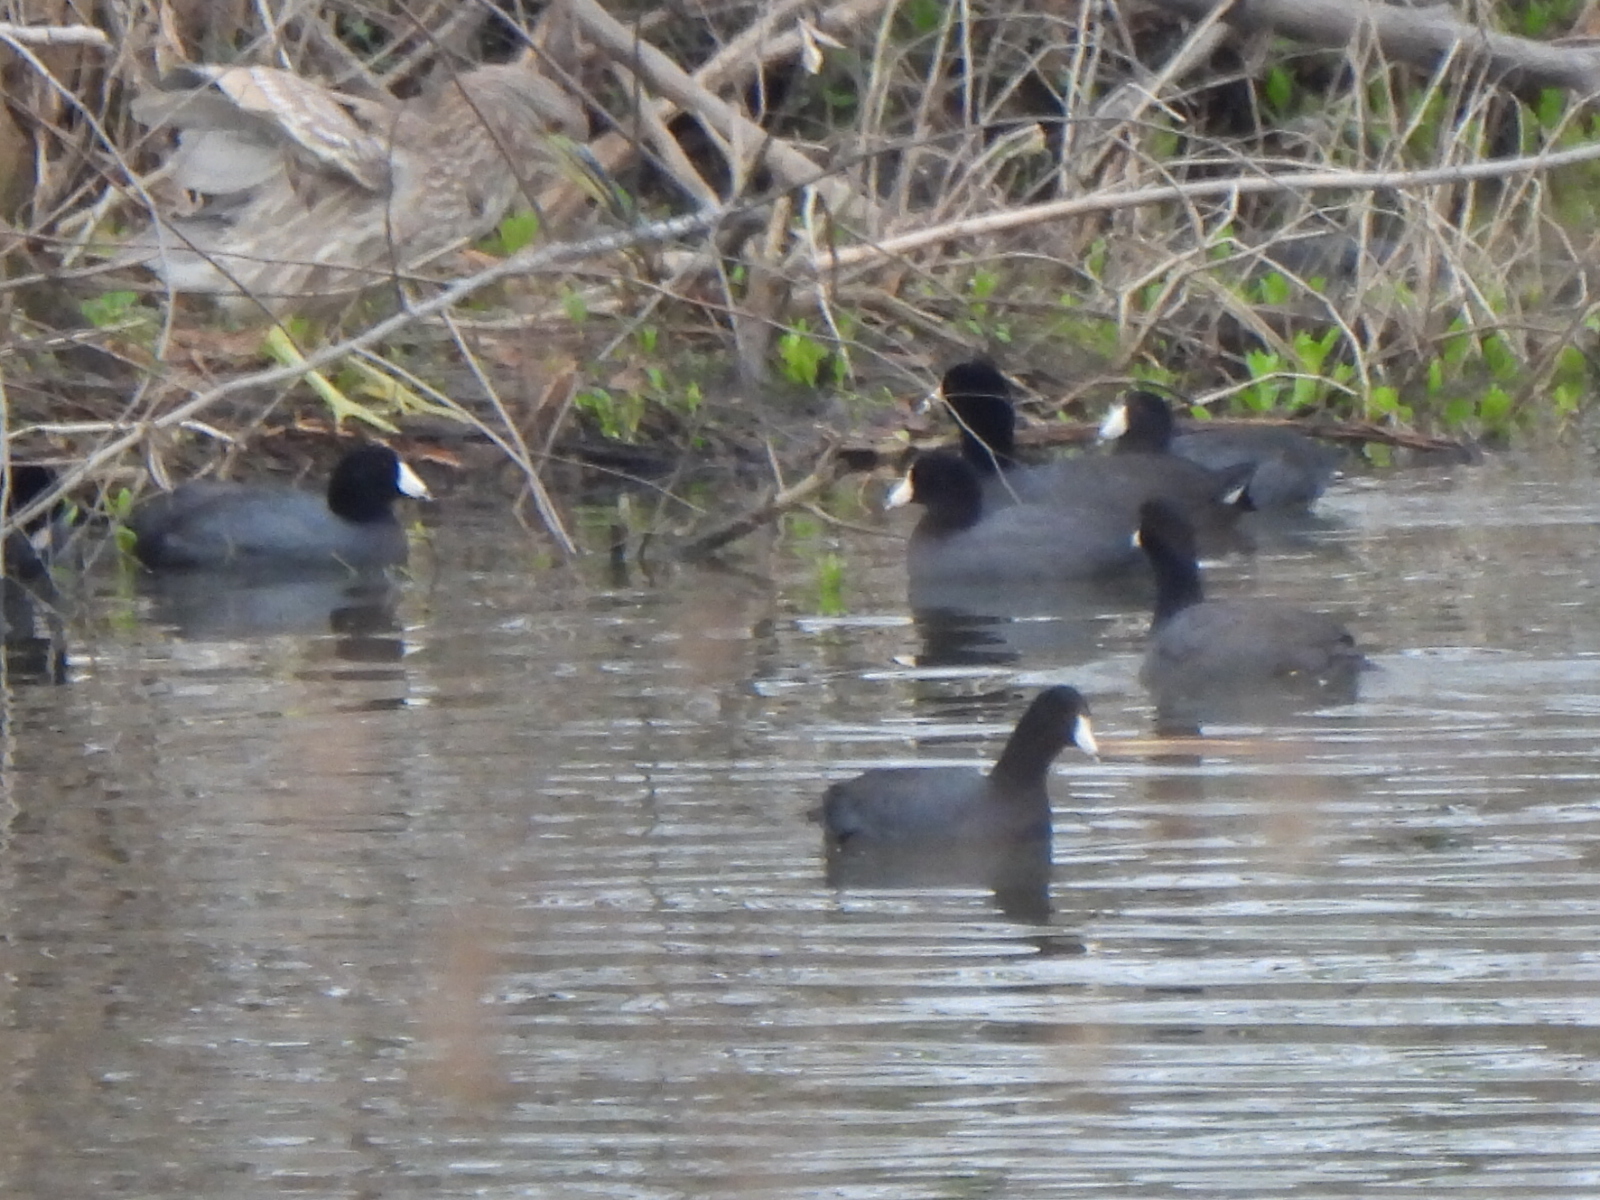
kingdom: Animalia
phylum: Chordata
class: Aves
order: Gruiformes
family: Rallidae
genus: Fulica
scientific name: Fulica americana
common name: American coot
